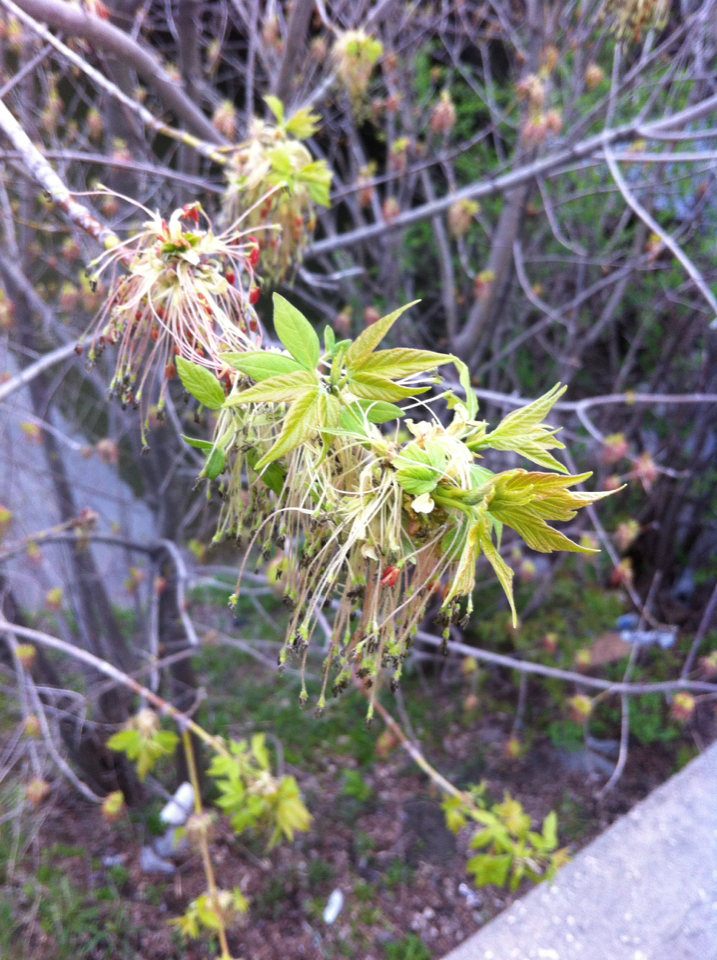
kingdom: Plantae
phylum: Tracheophyta
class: Magnoliopsida
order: Sapindales
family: Sapindaceae
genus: Acer
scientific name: Acer negundo
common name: Ashleaf maple
